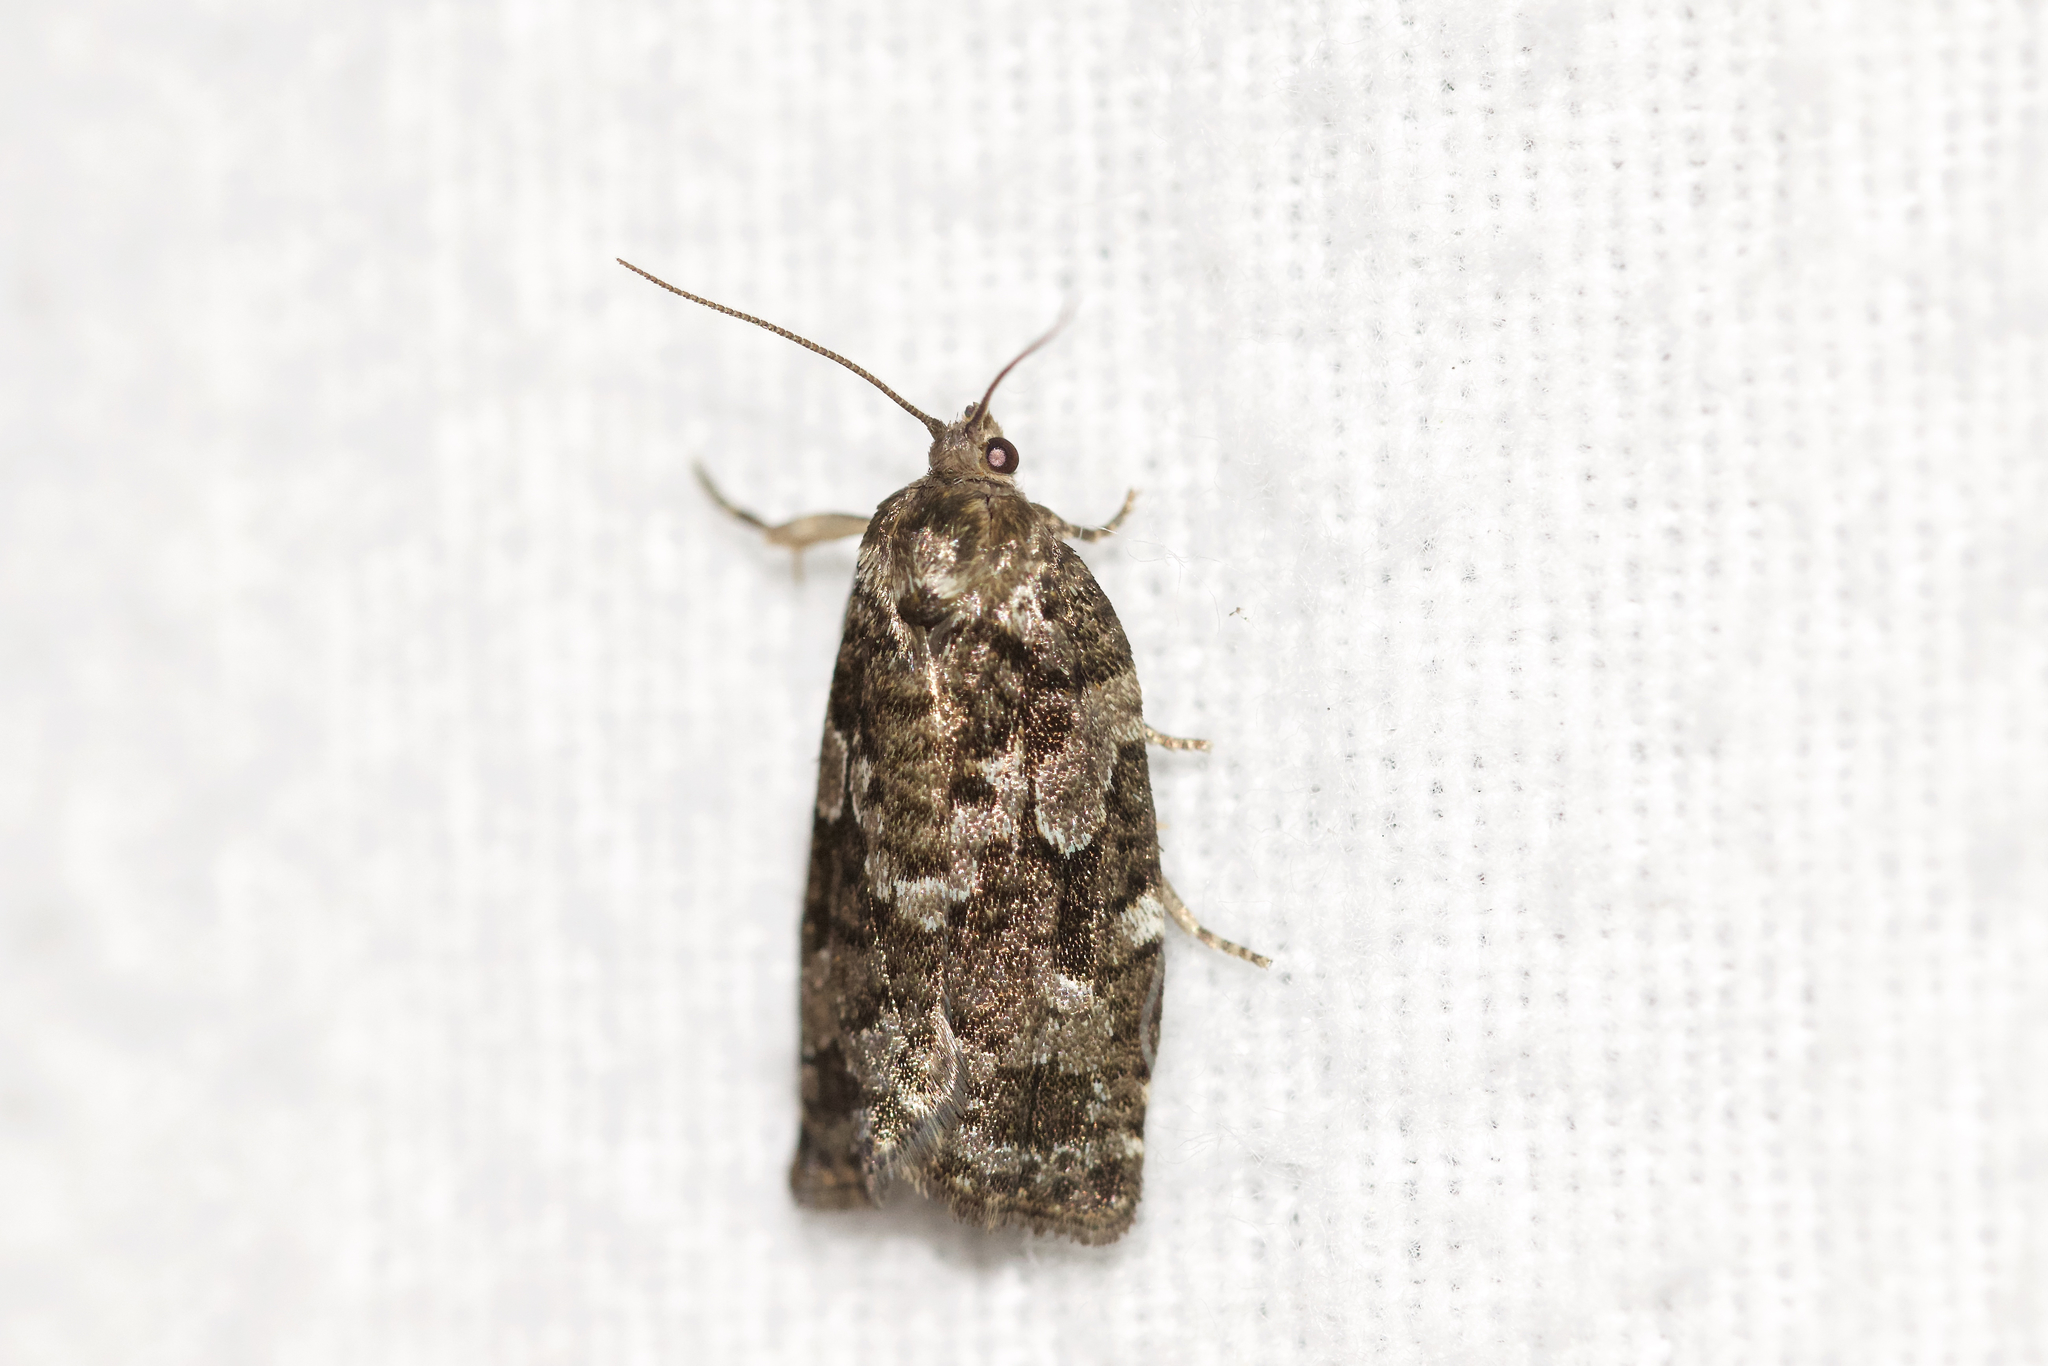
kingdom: Animalia
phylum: Arthropoda
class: Insecta
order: Lepidoptera
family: Tortricidae
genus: Choristoneura
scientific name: Choristoneura fumiferana
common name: Spruce budworm
